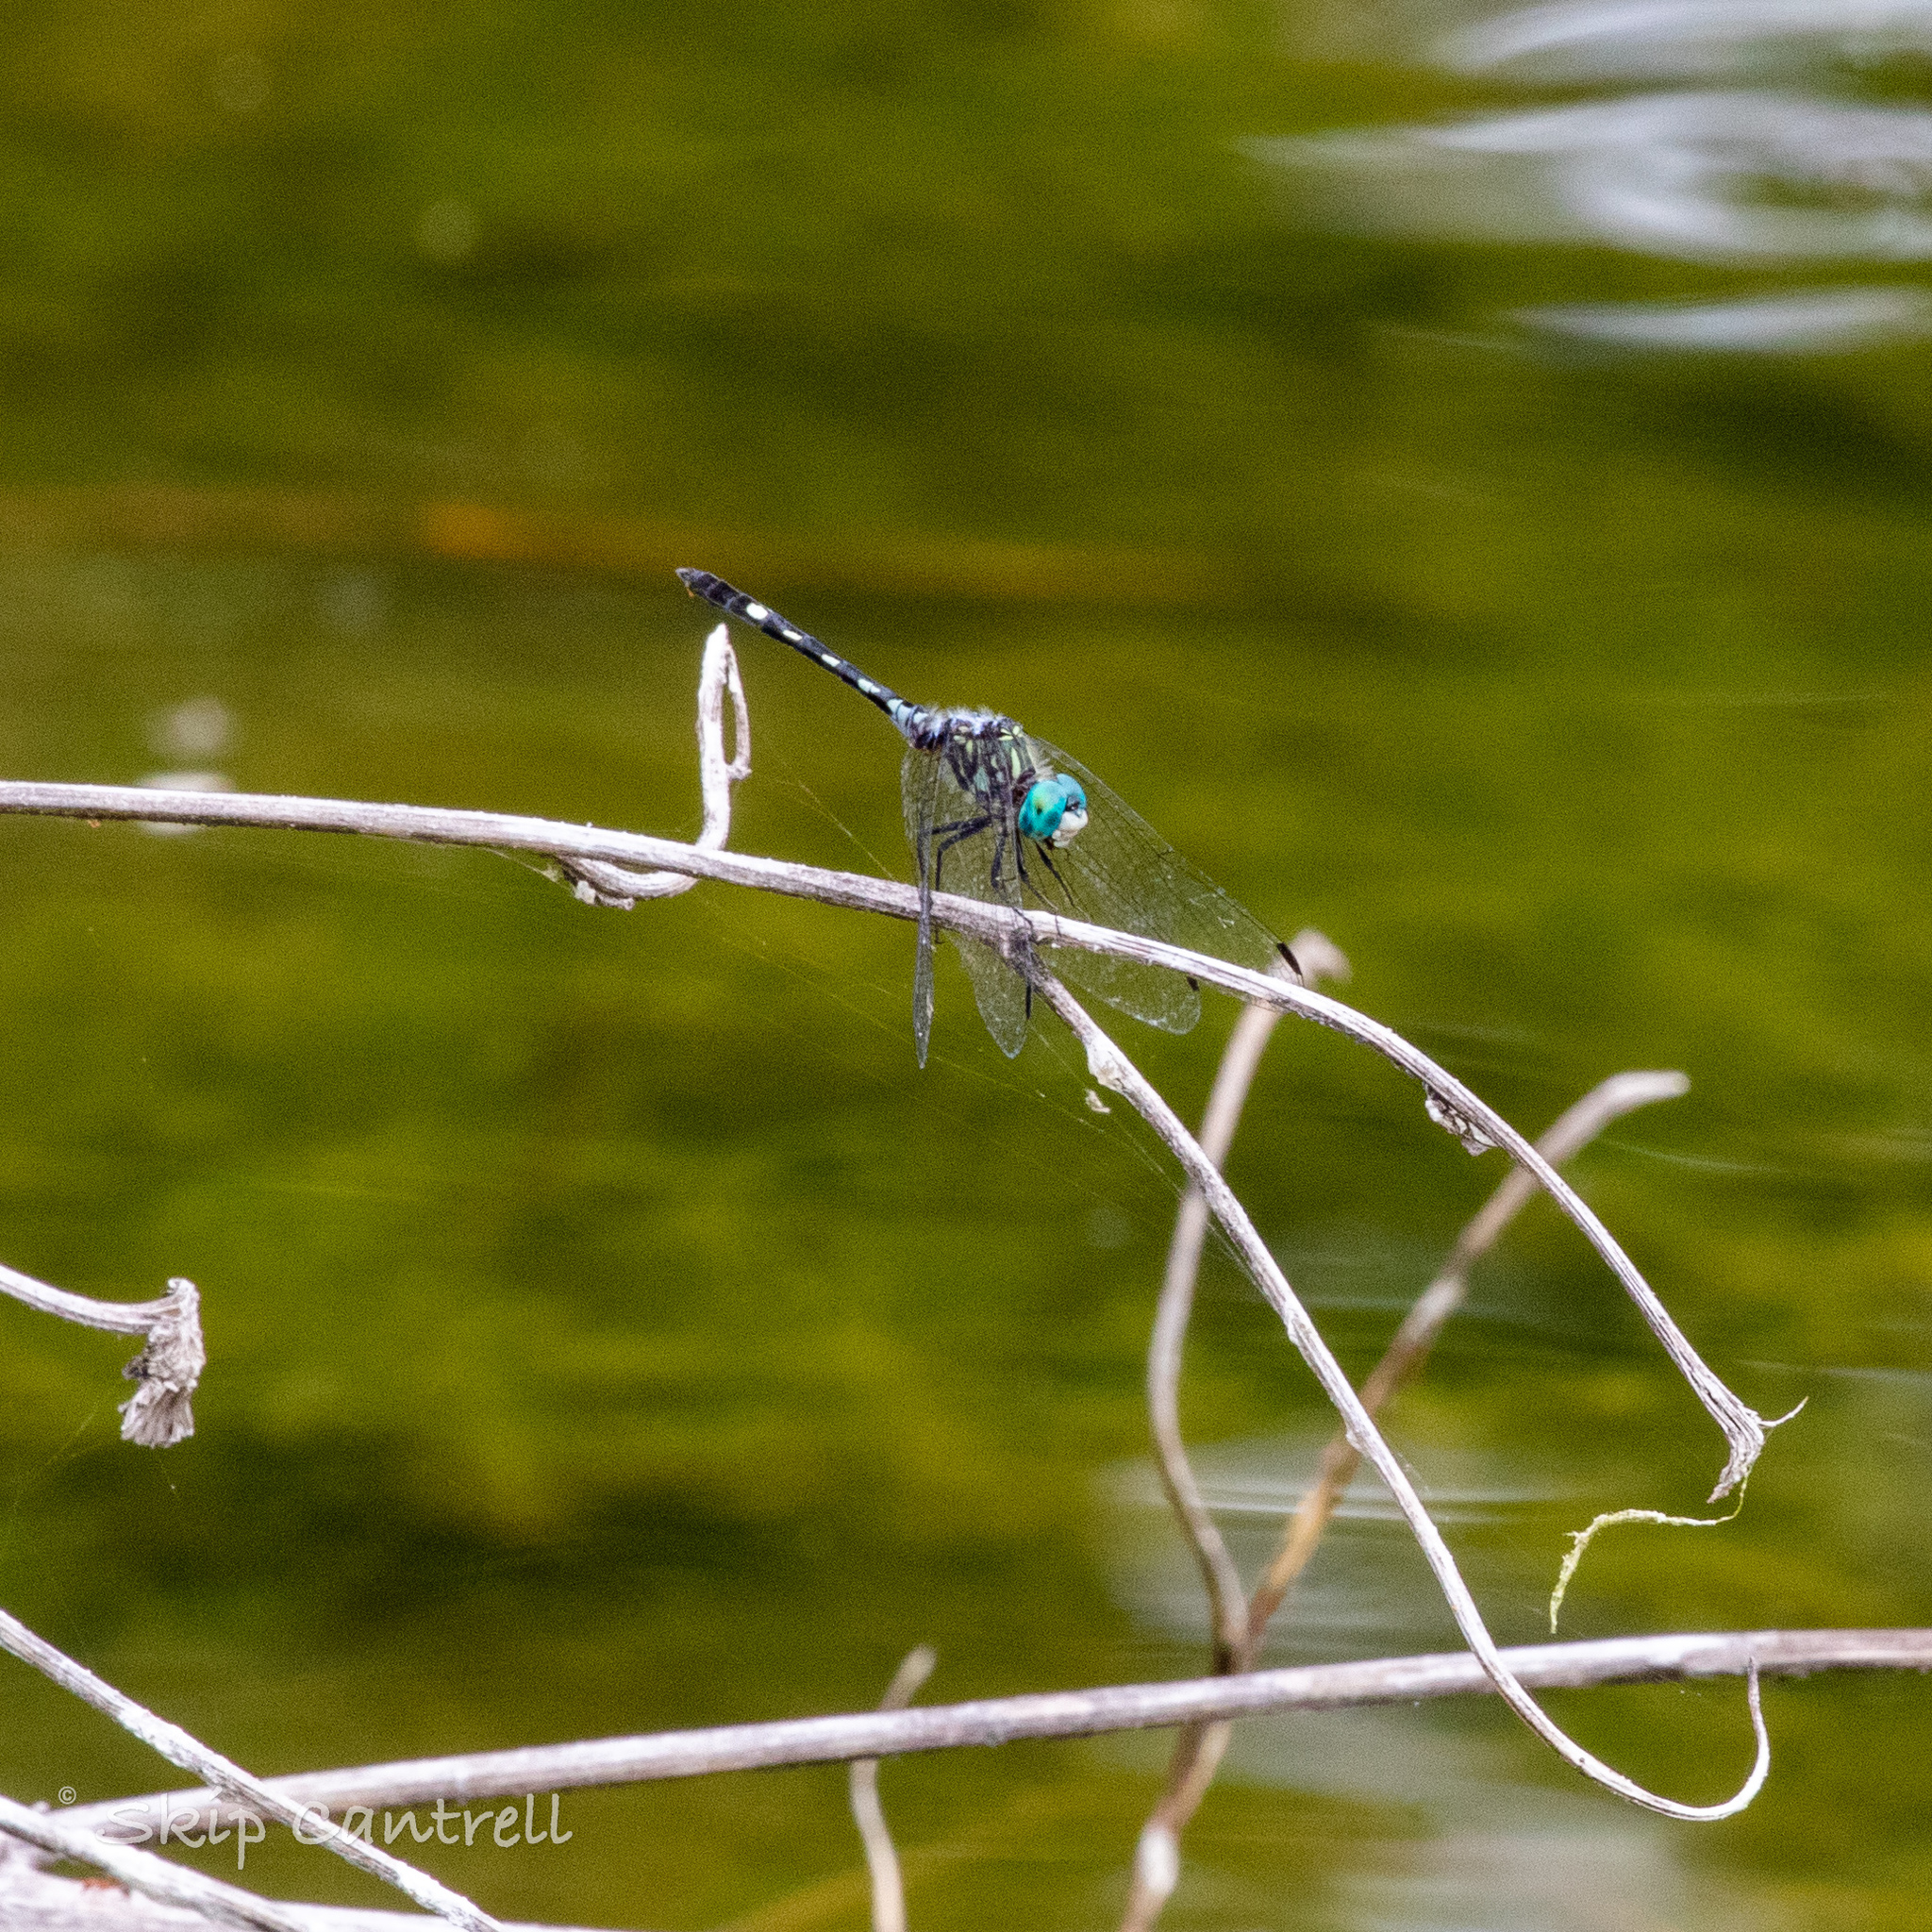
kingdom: Animalia
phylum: Arthropoda
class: Insecta
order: Odonata
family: Libellulidae
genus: Micrathyria
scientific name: Micrathyria hagenii
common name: Thornbush dasher
